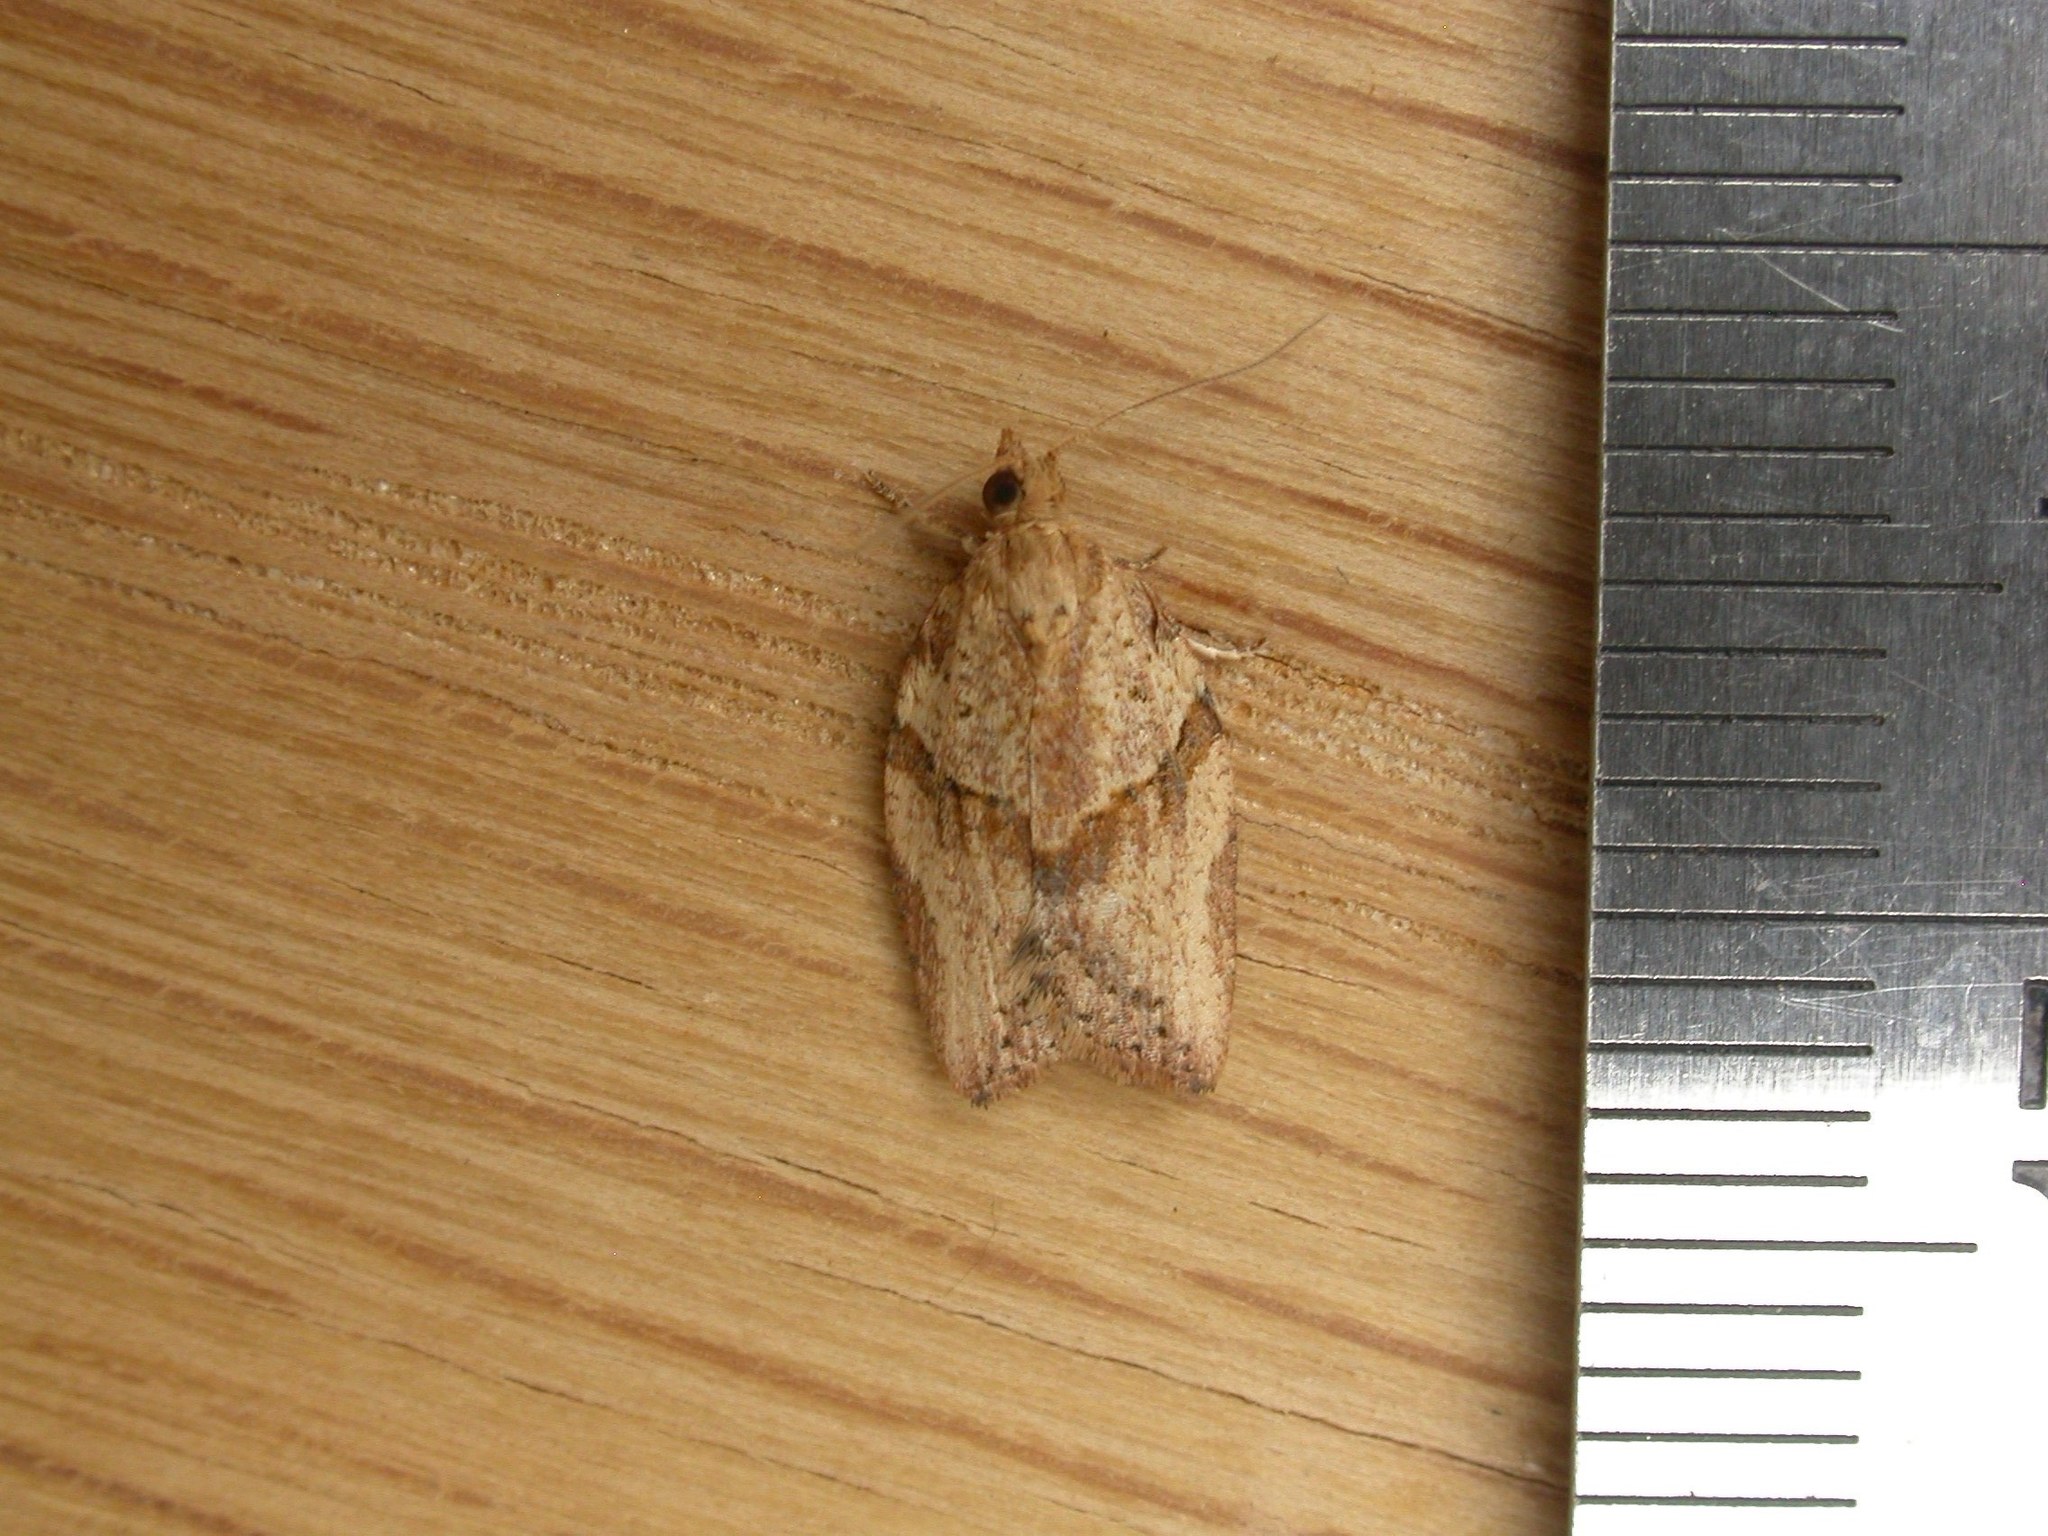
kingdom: Animalia
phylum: Arthropoda
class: Insecta
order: Lepidoptera
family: Tortricidae
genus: Epiphyas
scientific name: Epiphyas postvittana
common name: Light brown apple moth
